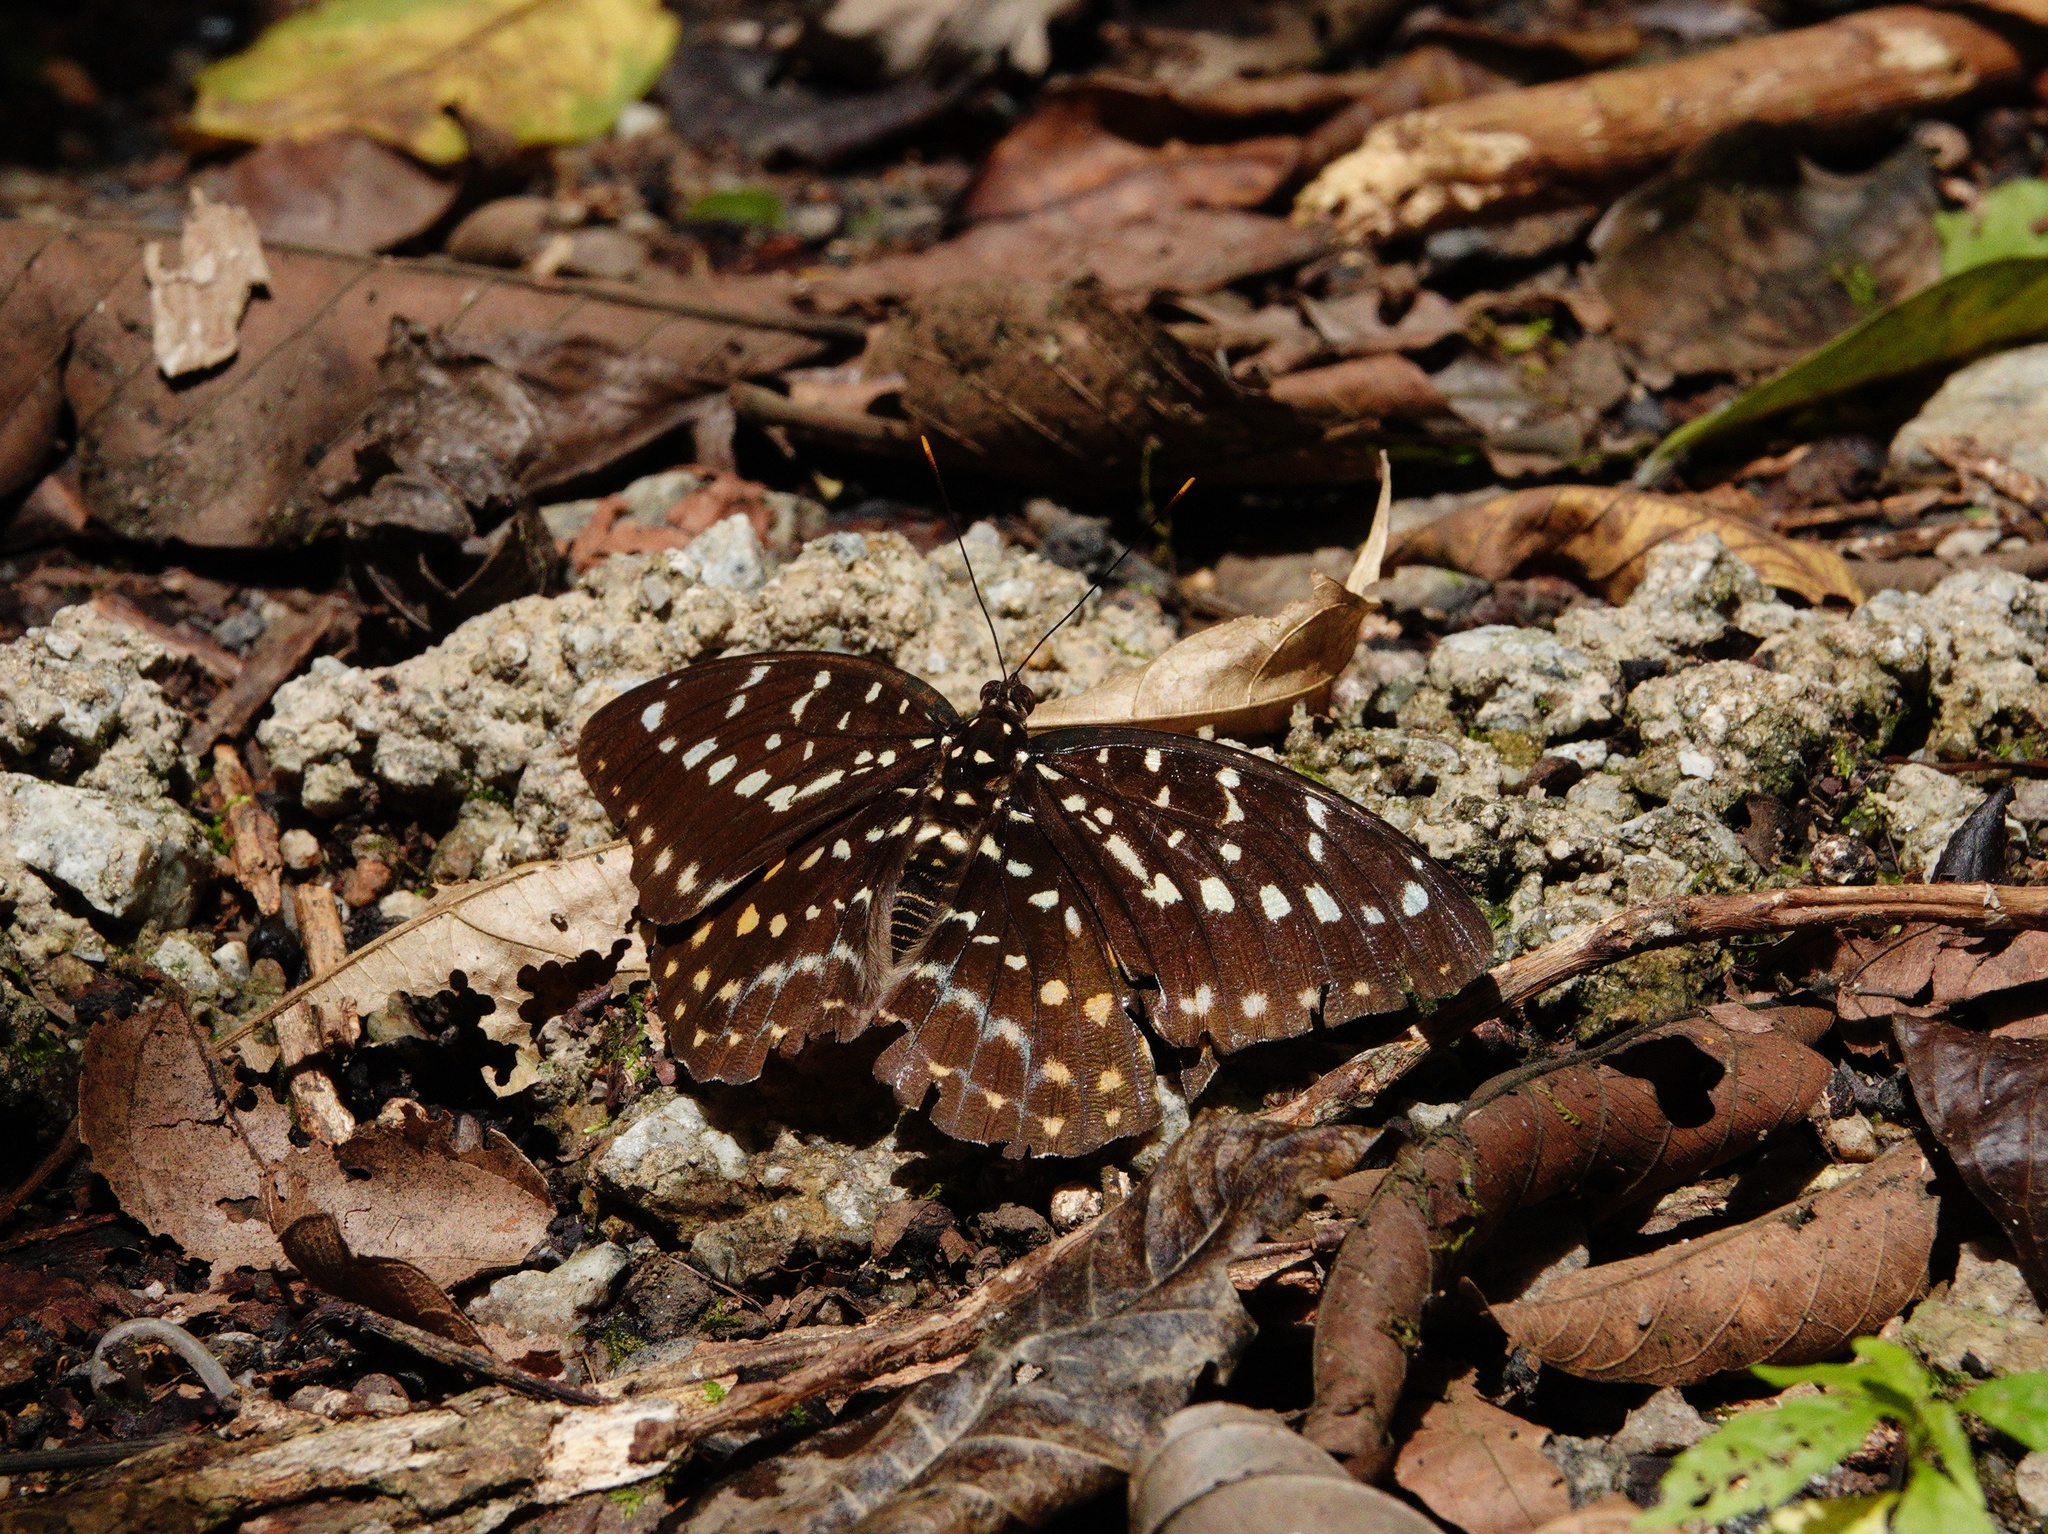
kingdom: Animalia
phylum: Arthropoda
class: Insecta
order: Lepidoptera
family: Nymphalidae
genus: Lexias
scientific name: Lexias pardalis
